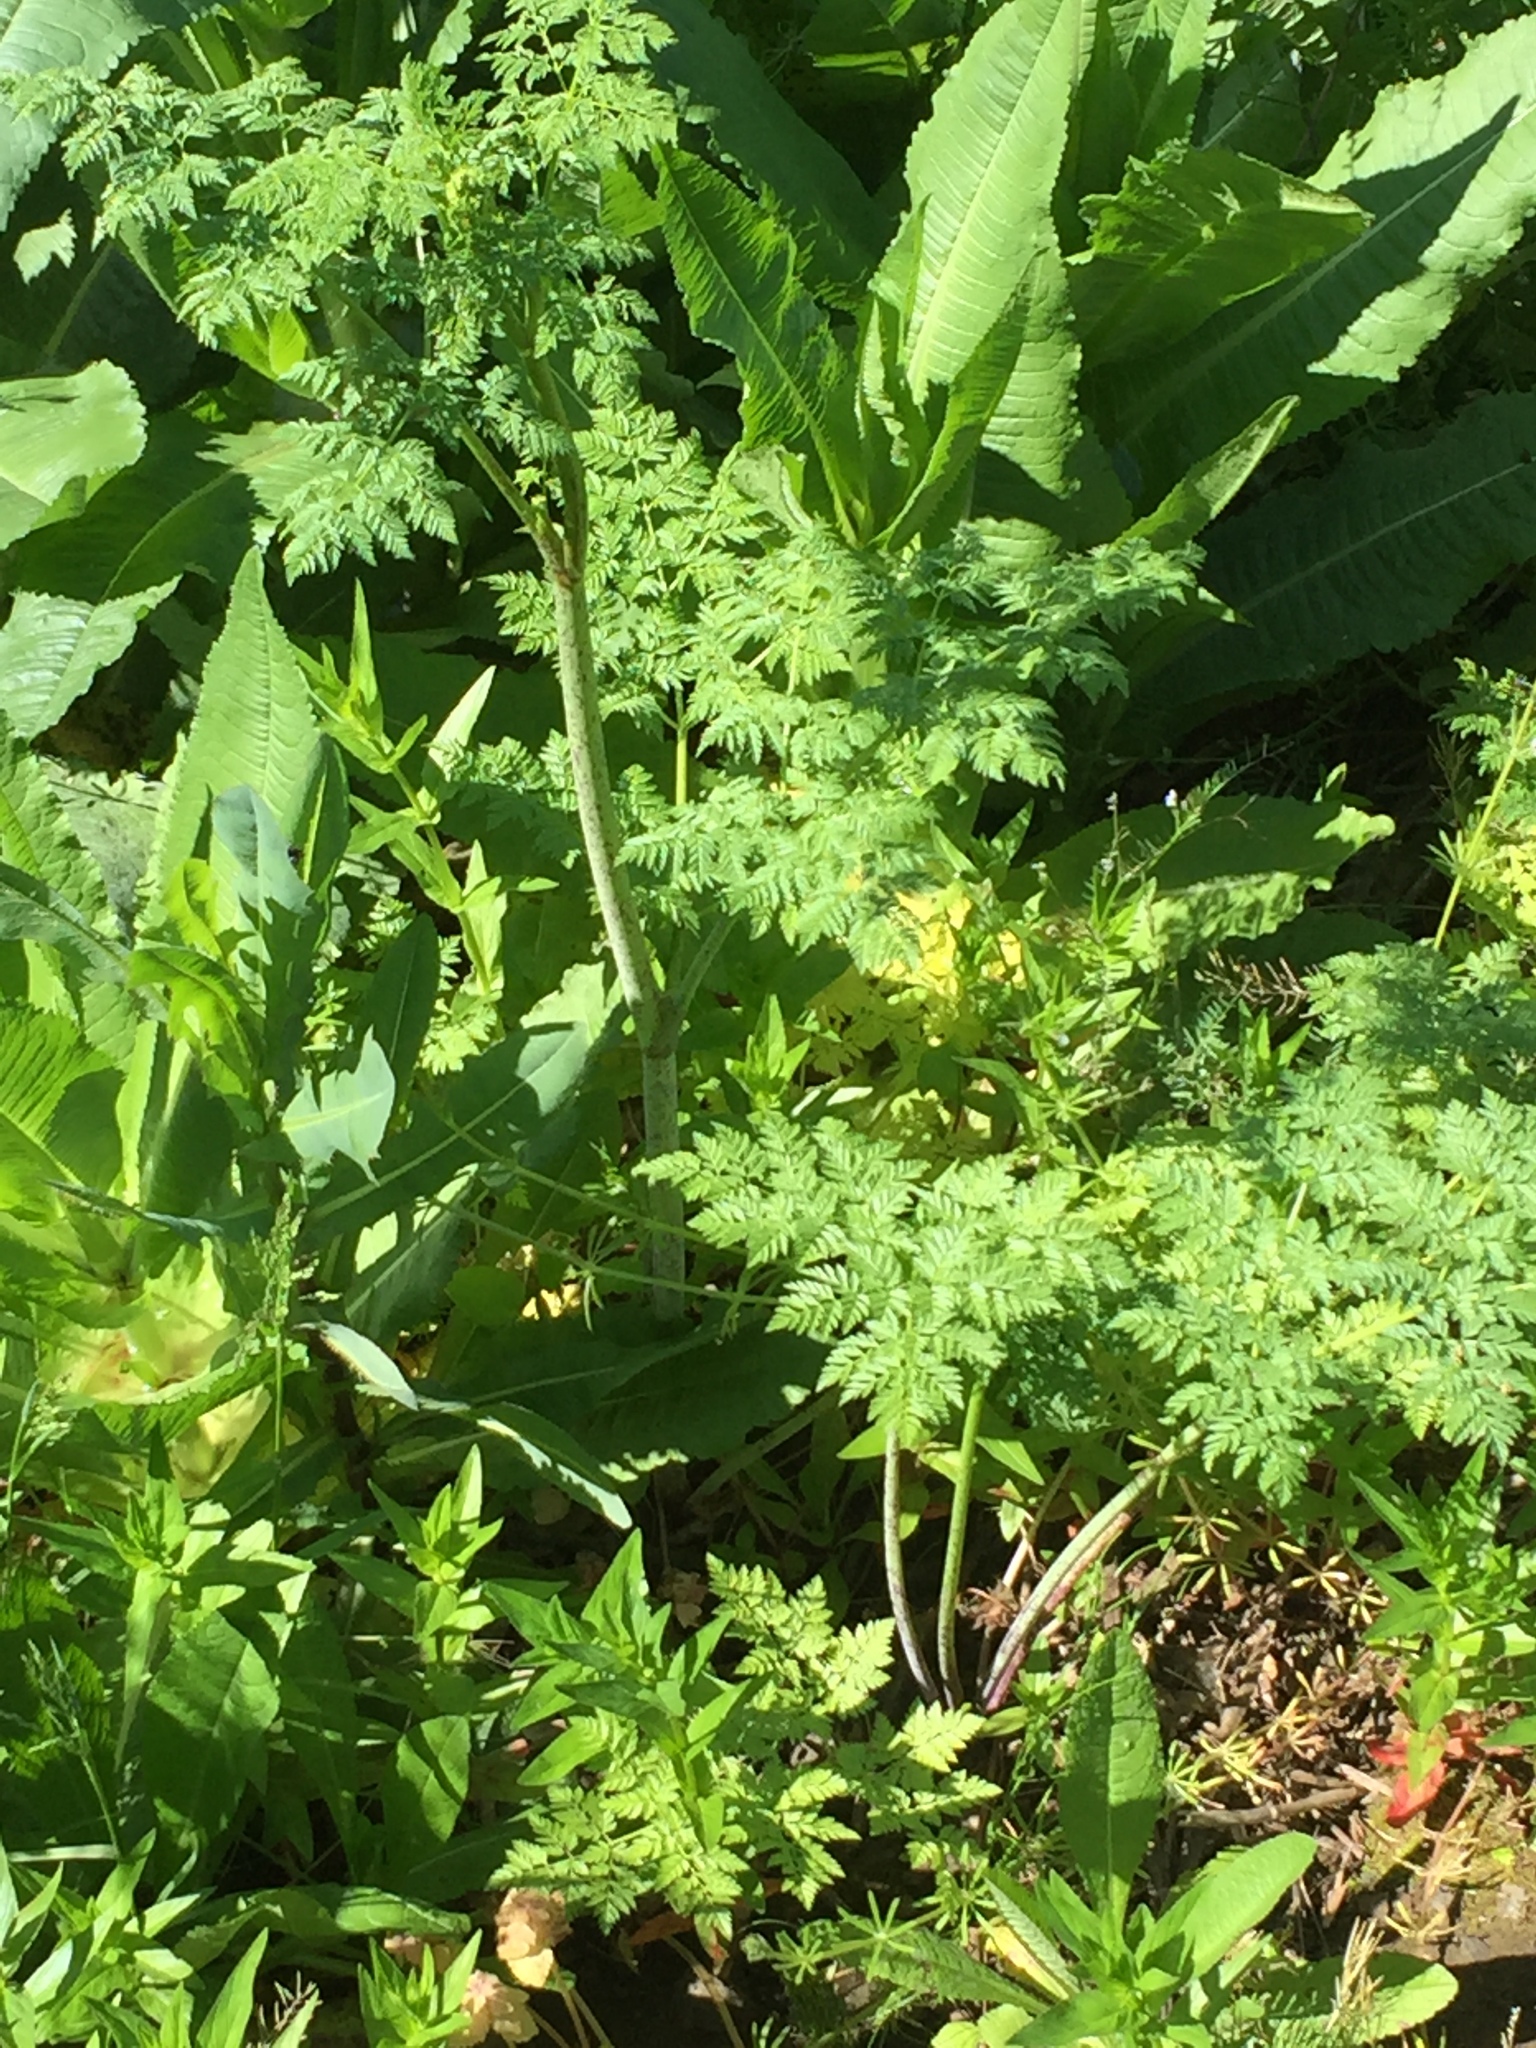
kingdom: Plantae
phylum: Tracheophyta
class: Magnoliopsida
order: Apiales
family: Apiaceae
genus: Conium
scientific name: Conium maculatum
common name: Hemlock
